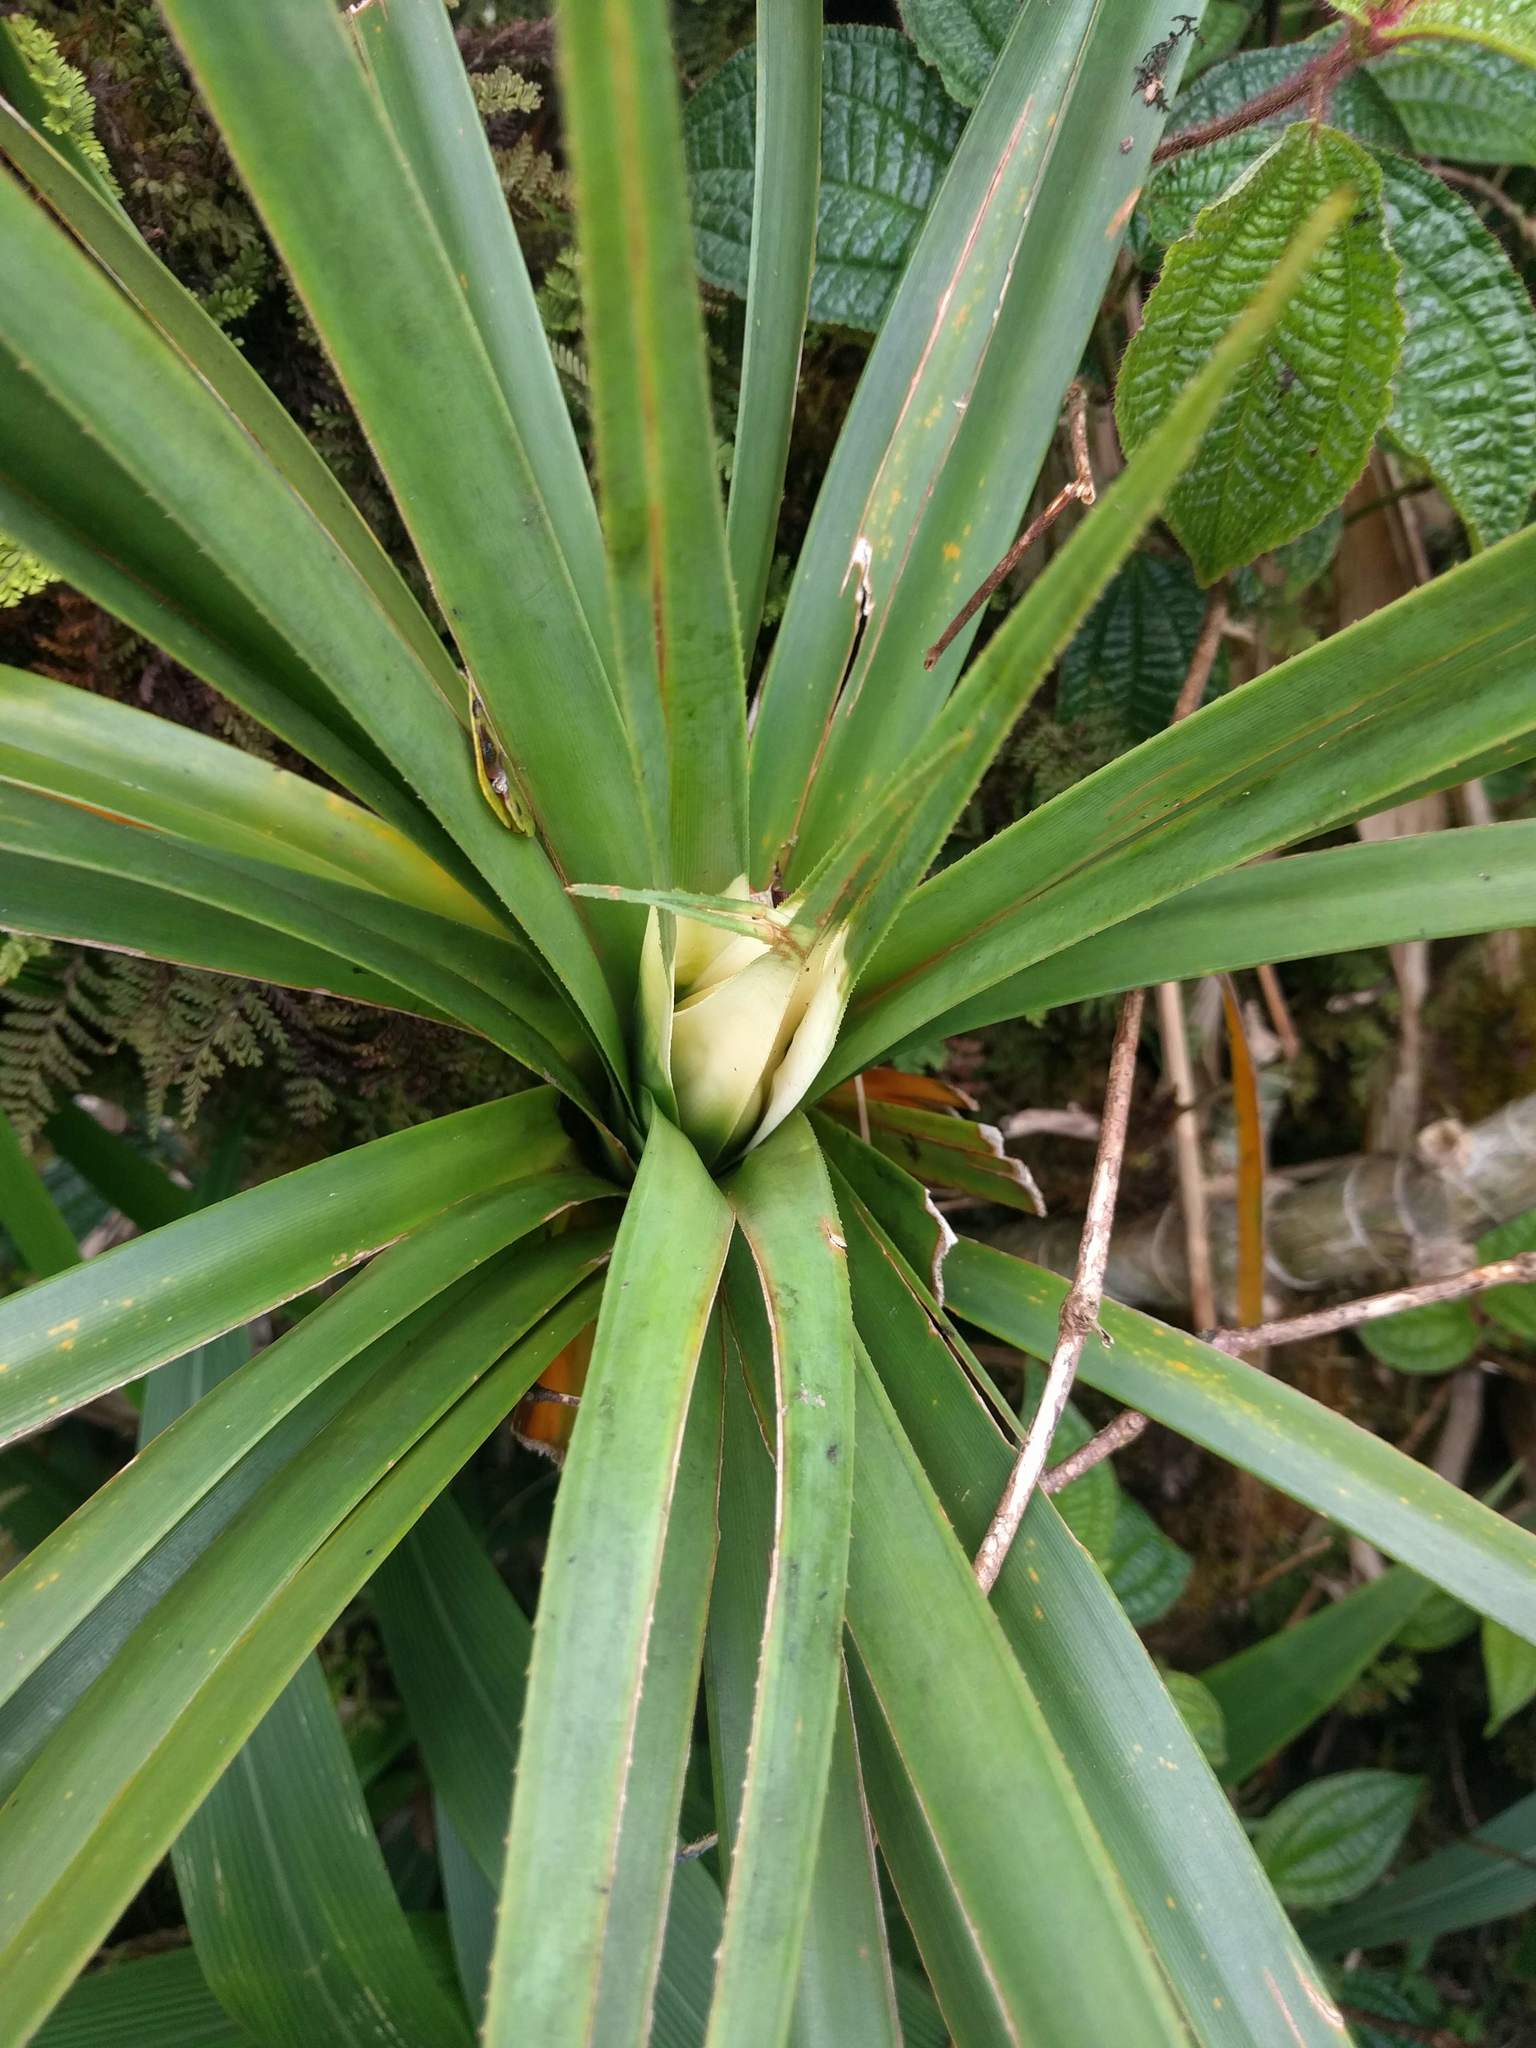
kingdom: Plantae
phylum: Tracheophyta
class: Liliopsida
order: Pandanales
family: Pandanaceae
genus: Freycinetia
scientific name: Freycinetia arborea
